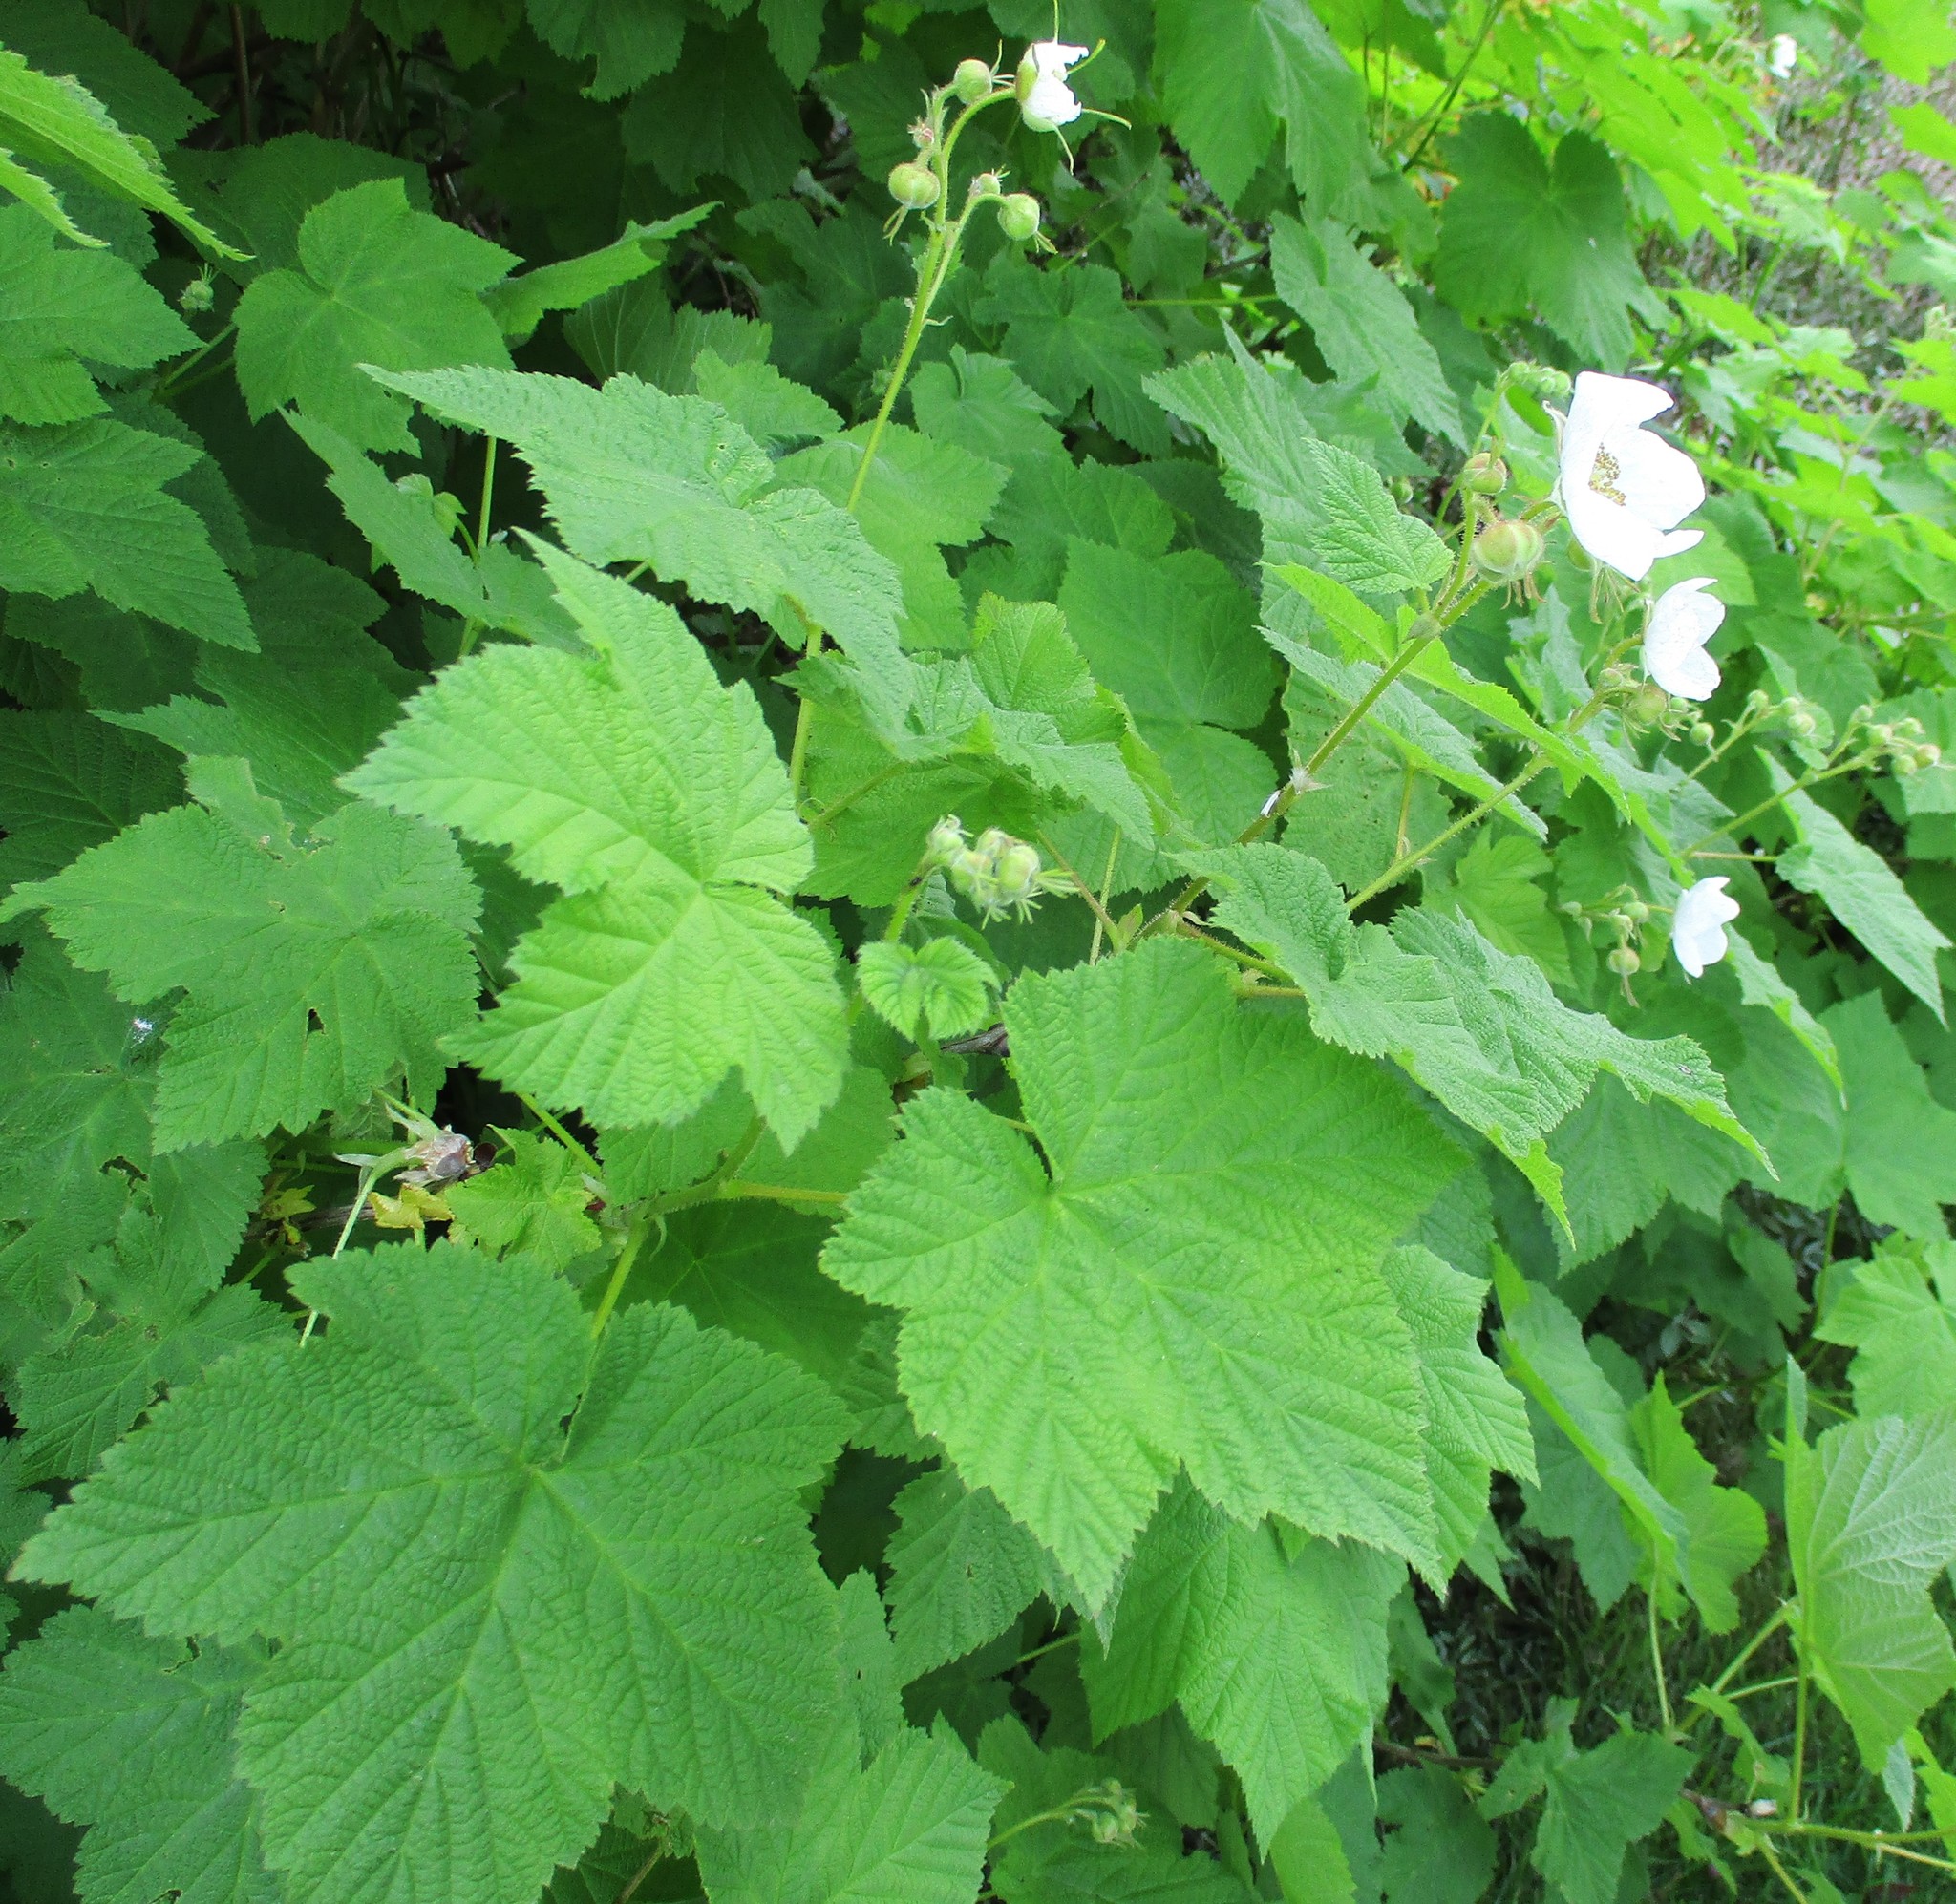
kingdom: Plantae
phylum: Tracheophyta
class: Magnoliopsida
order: Rosales
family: Rosaceae
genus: Rubus
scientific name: Rubus parviflorus
